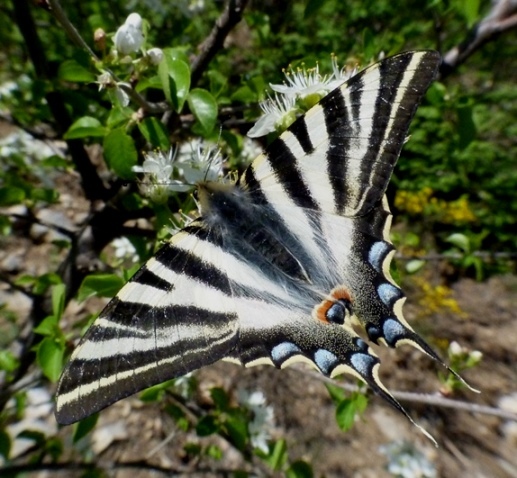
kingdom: Animalia
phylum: Arthropoda
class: Insecta
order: Lepidoptera
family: Papilionidae
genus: Iphiclides
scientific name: Iphiclides feisthamelii
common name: Iberian scarce swallowtail
